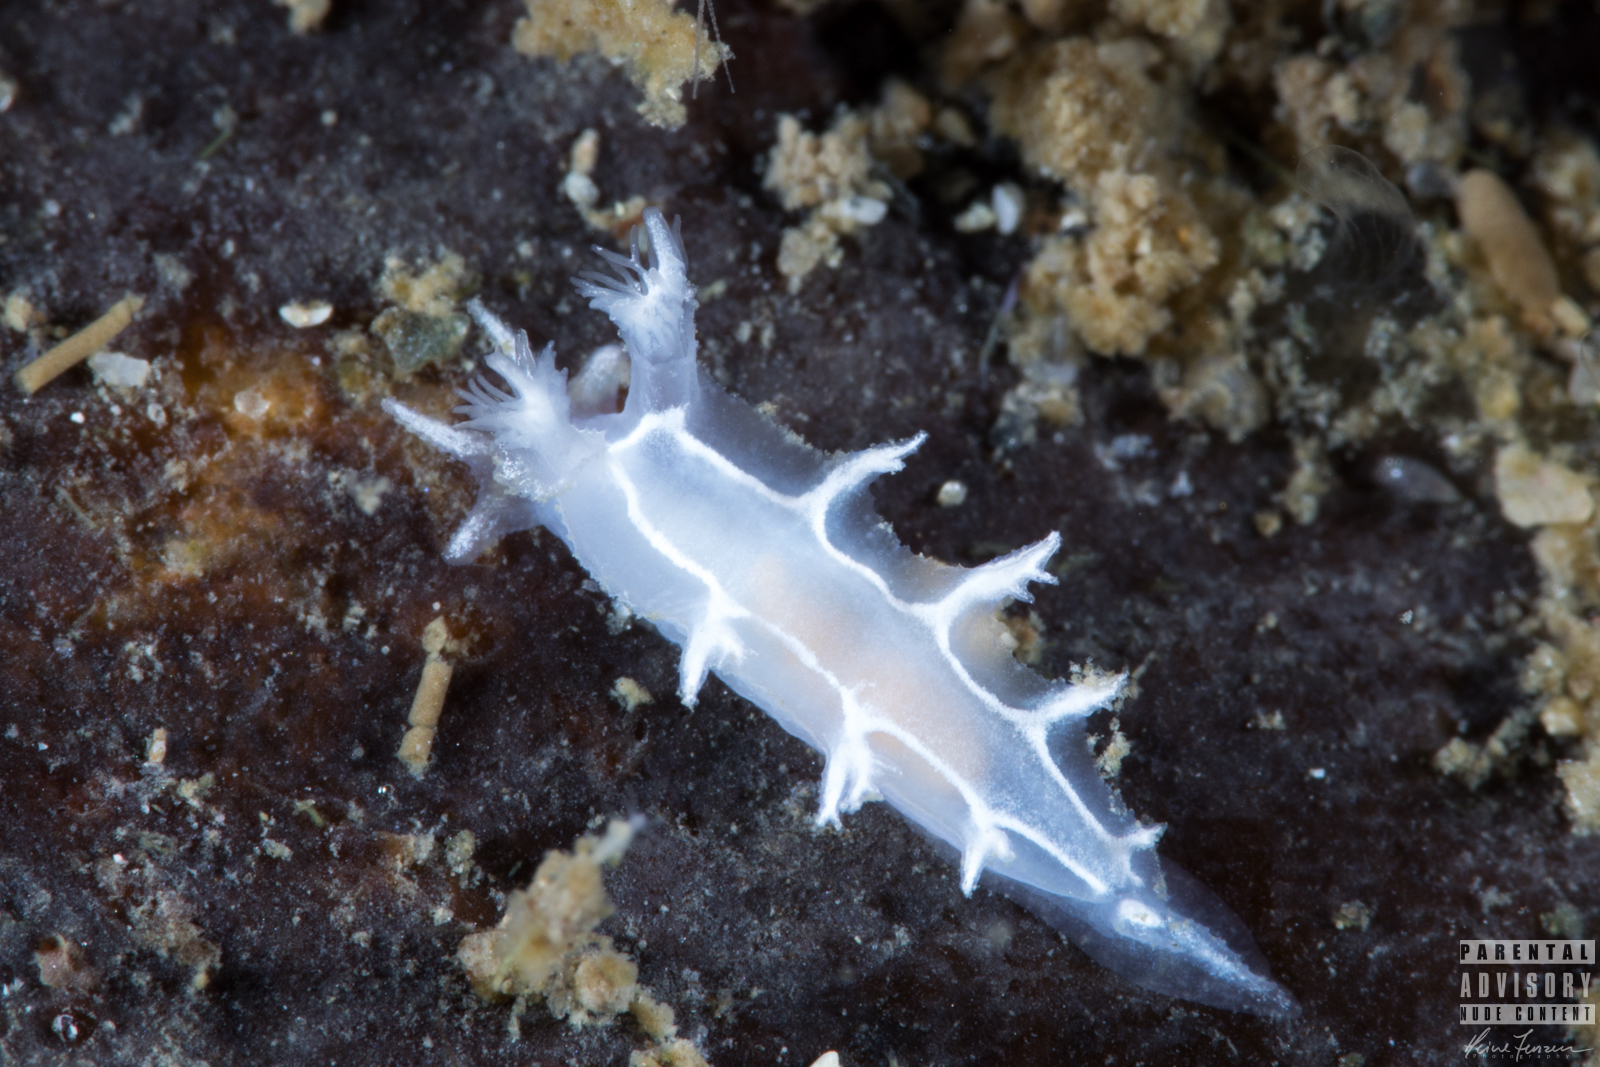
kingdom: Animalia
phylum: Mollusca
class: Gastropoda
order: Nudibranchia
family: Tritoniidae
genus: Duvaucelia
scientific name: Duvaucelia lineata
